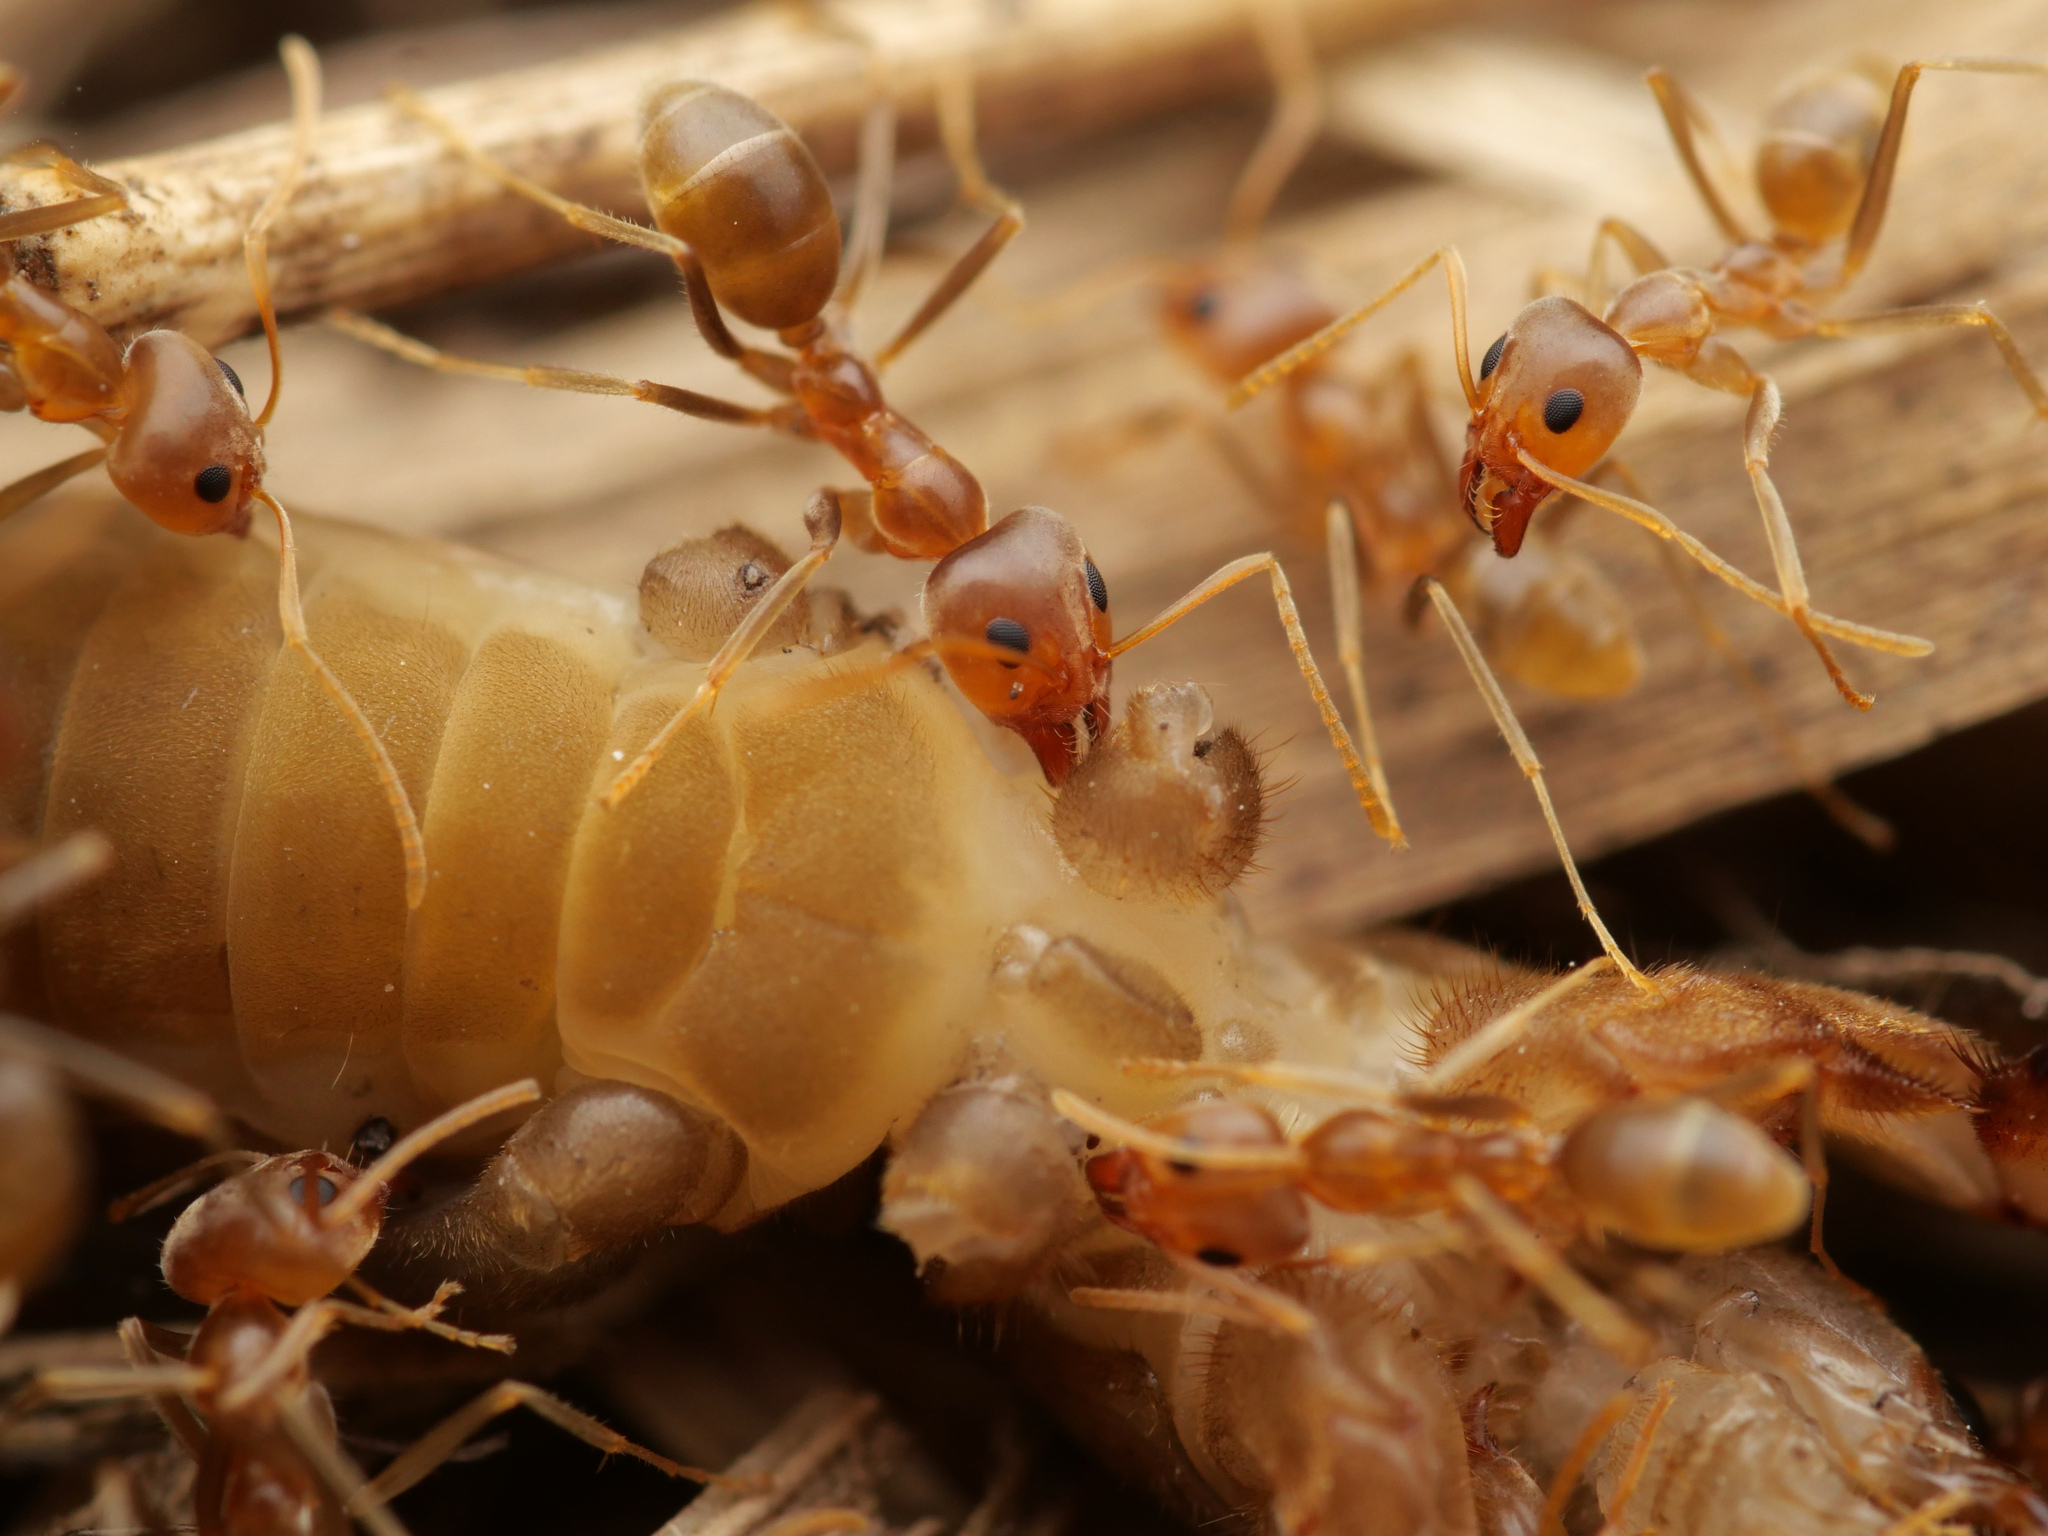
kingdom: Animalia
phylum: Arthropoda
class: Insecta
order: Hymenoptera
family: Formicidae
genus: Iridomyrmex
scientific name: Iridomyrmex pallidus
